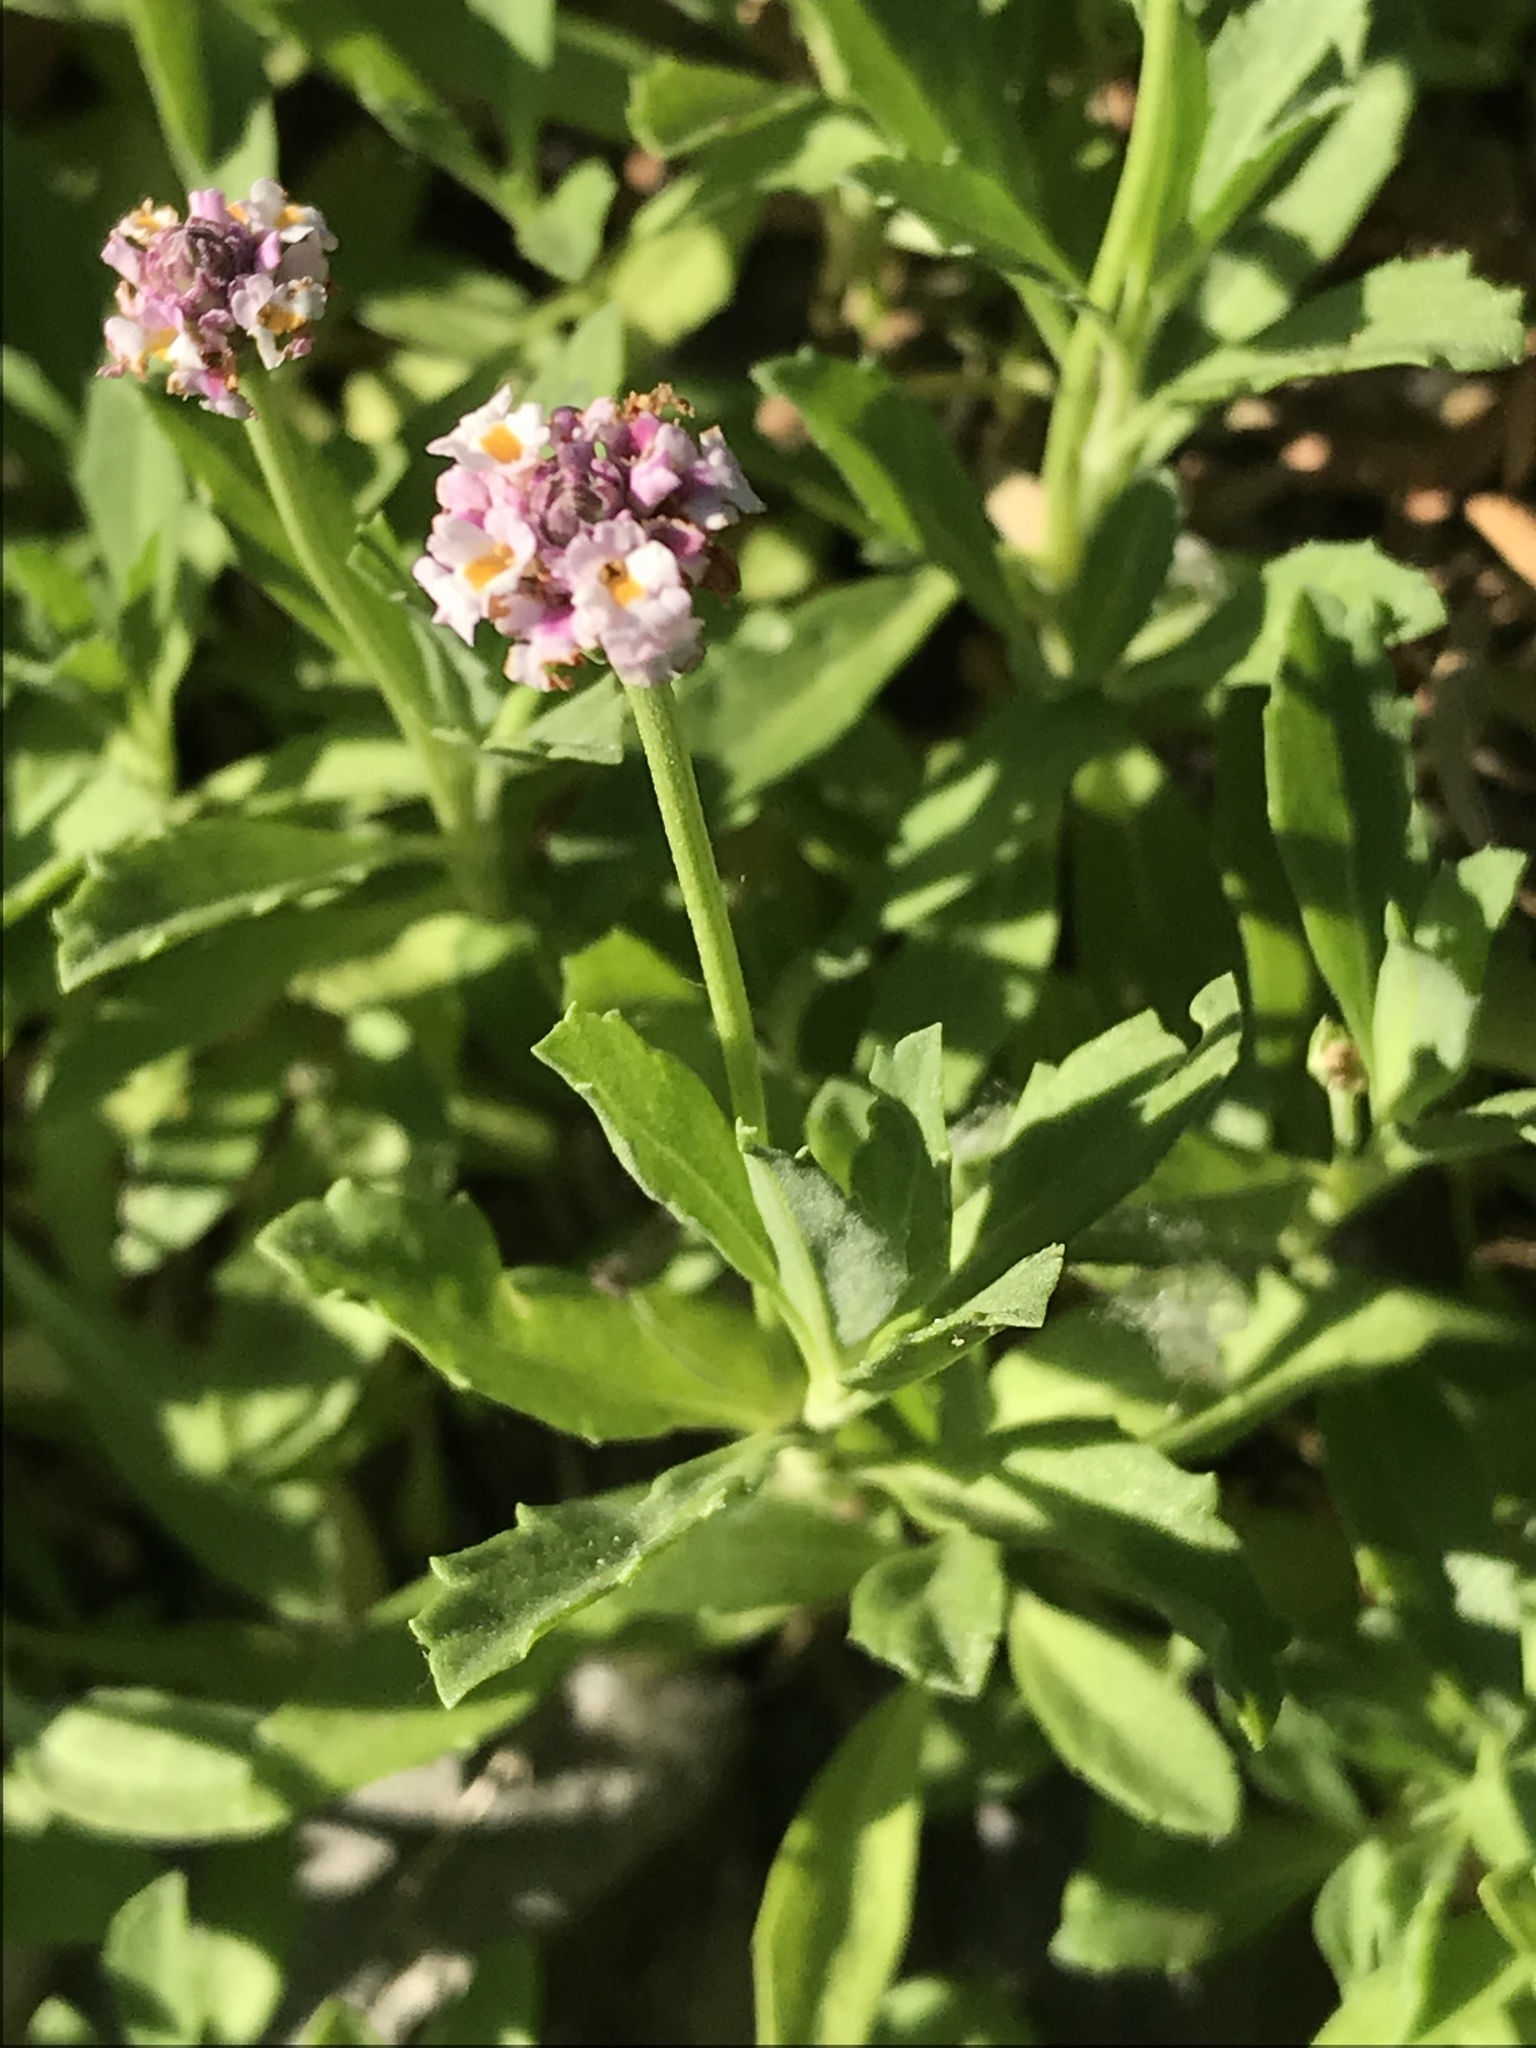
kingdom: Plantae
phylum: Tracheophyta
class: Magnoliopsida
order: Lamiales
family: Verbenaceae
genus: Phyla
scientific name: Phyla nodiflora
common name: Frogfruit
